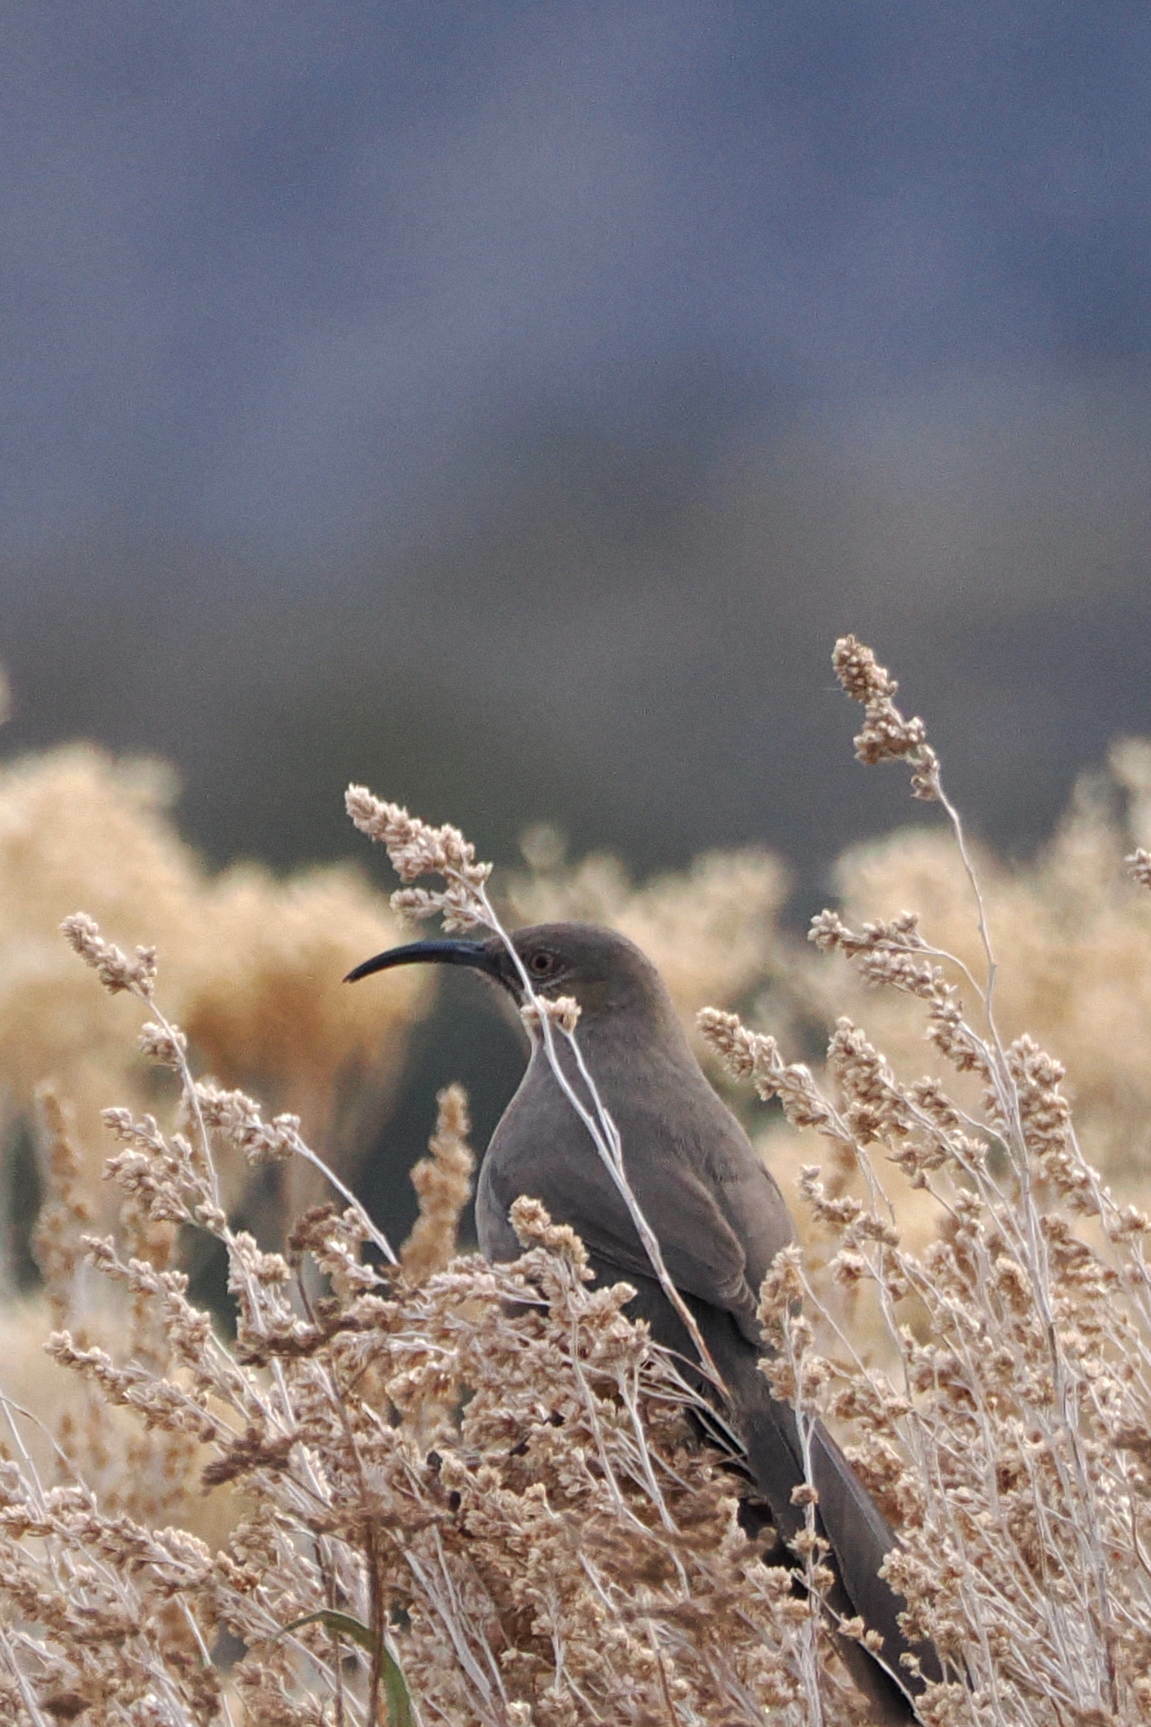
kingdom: Animalia
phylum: Chordata
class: Aves
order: Passeriformes
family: Mimidae
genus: Toxostoma
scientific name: Toxostoma crissale
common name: Crissal thrasher
